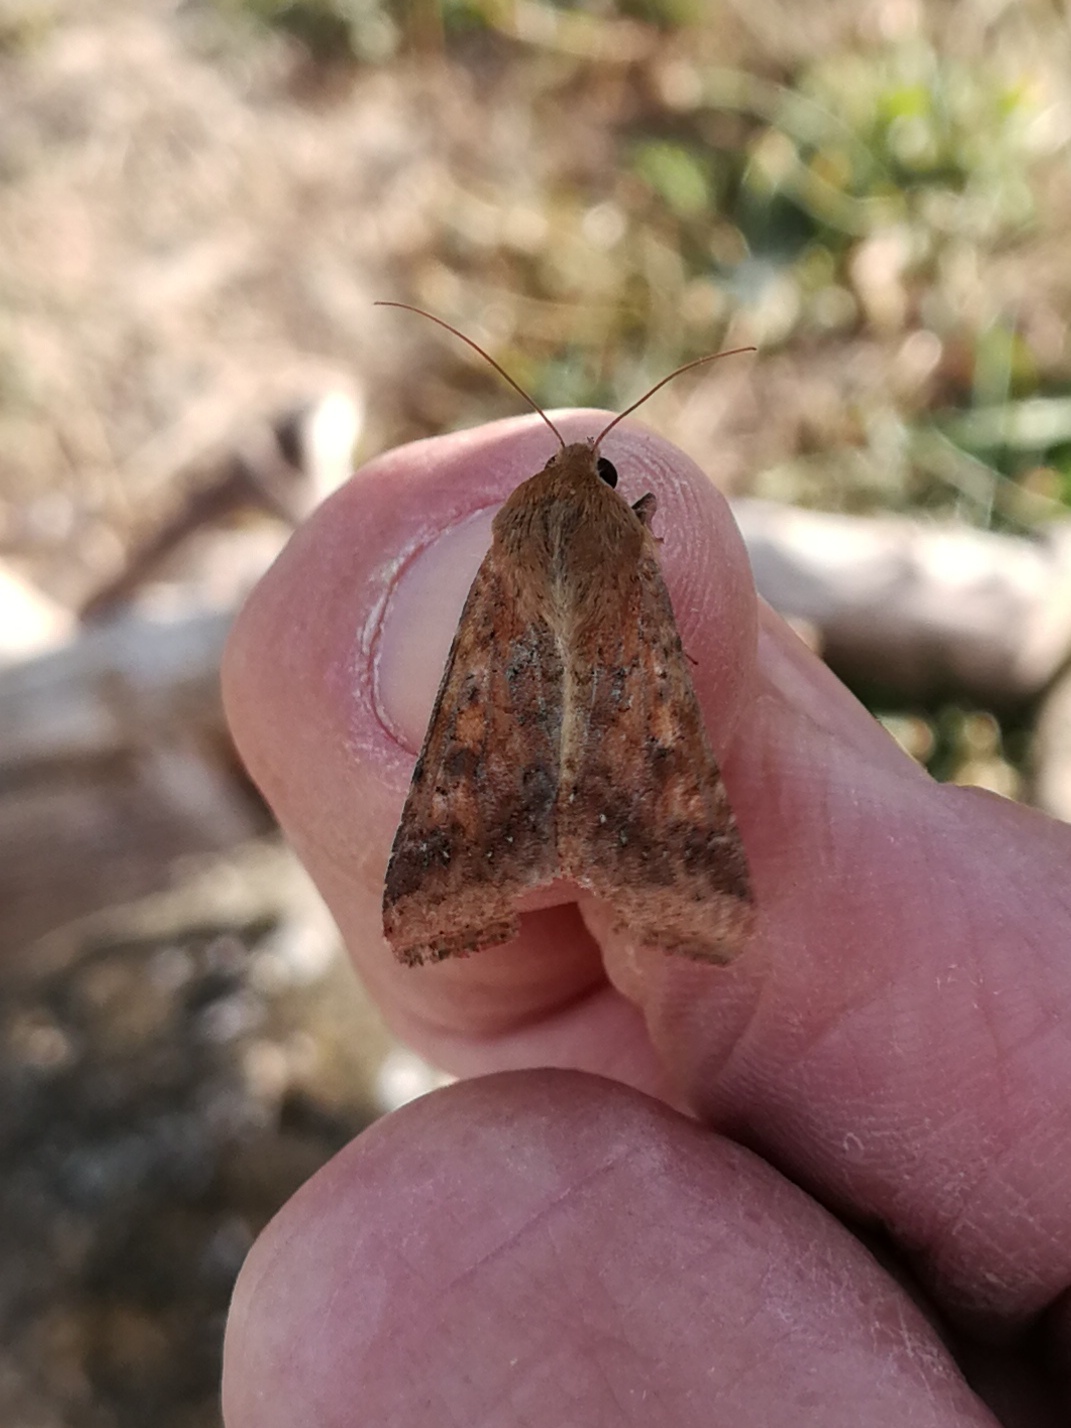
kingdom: Animalia
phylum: Arthropoda
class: Insecta
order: Lepidoptera
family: Noctuidae
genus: Helicoverpa
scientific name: Helicoverpa armigera
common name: Cotton bollworm
